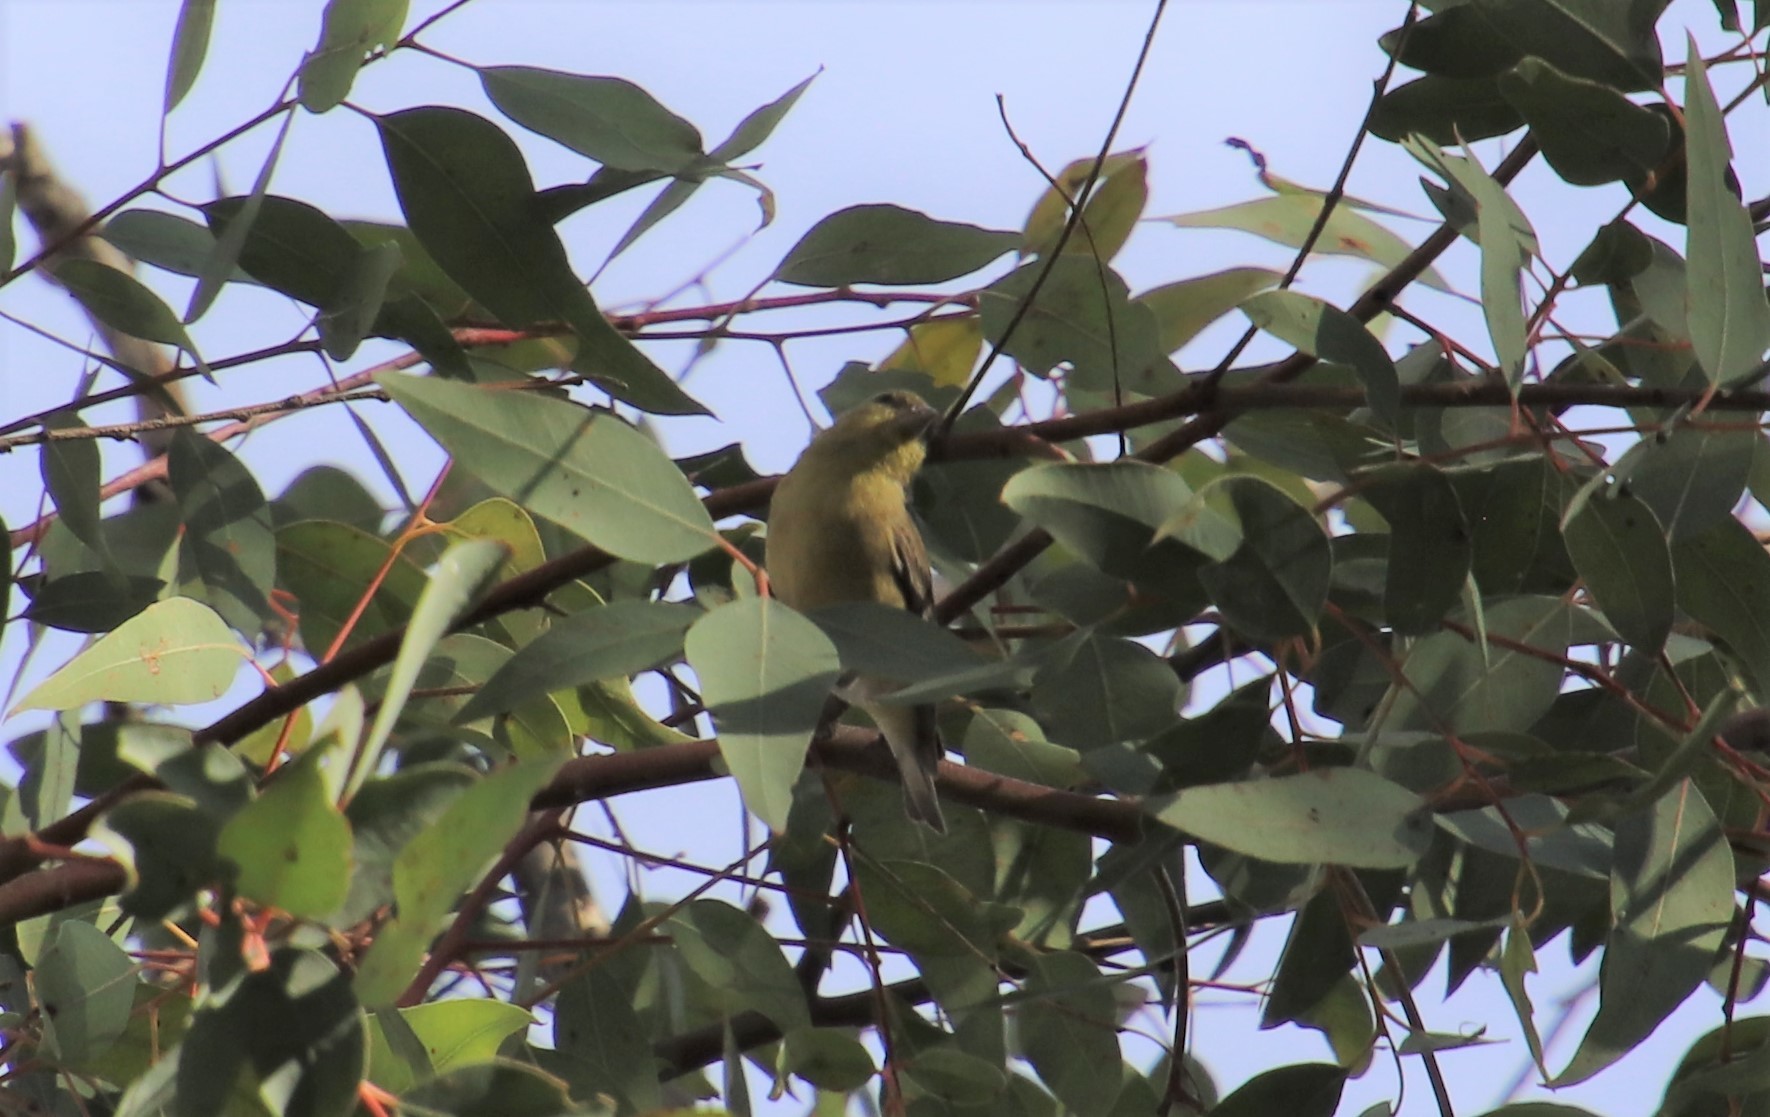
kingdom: Animalia
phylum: Chordata
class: Aves
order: Passeriformes
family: Fringillidae
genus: Spinus
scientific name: Spinus psaltria
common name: Lesser goldfinch
